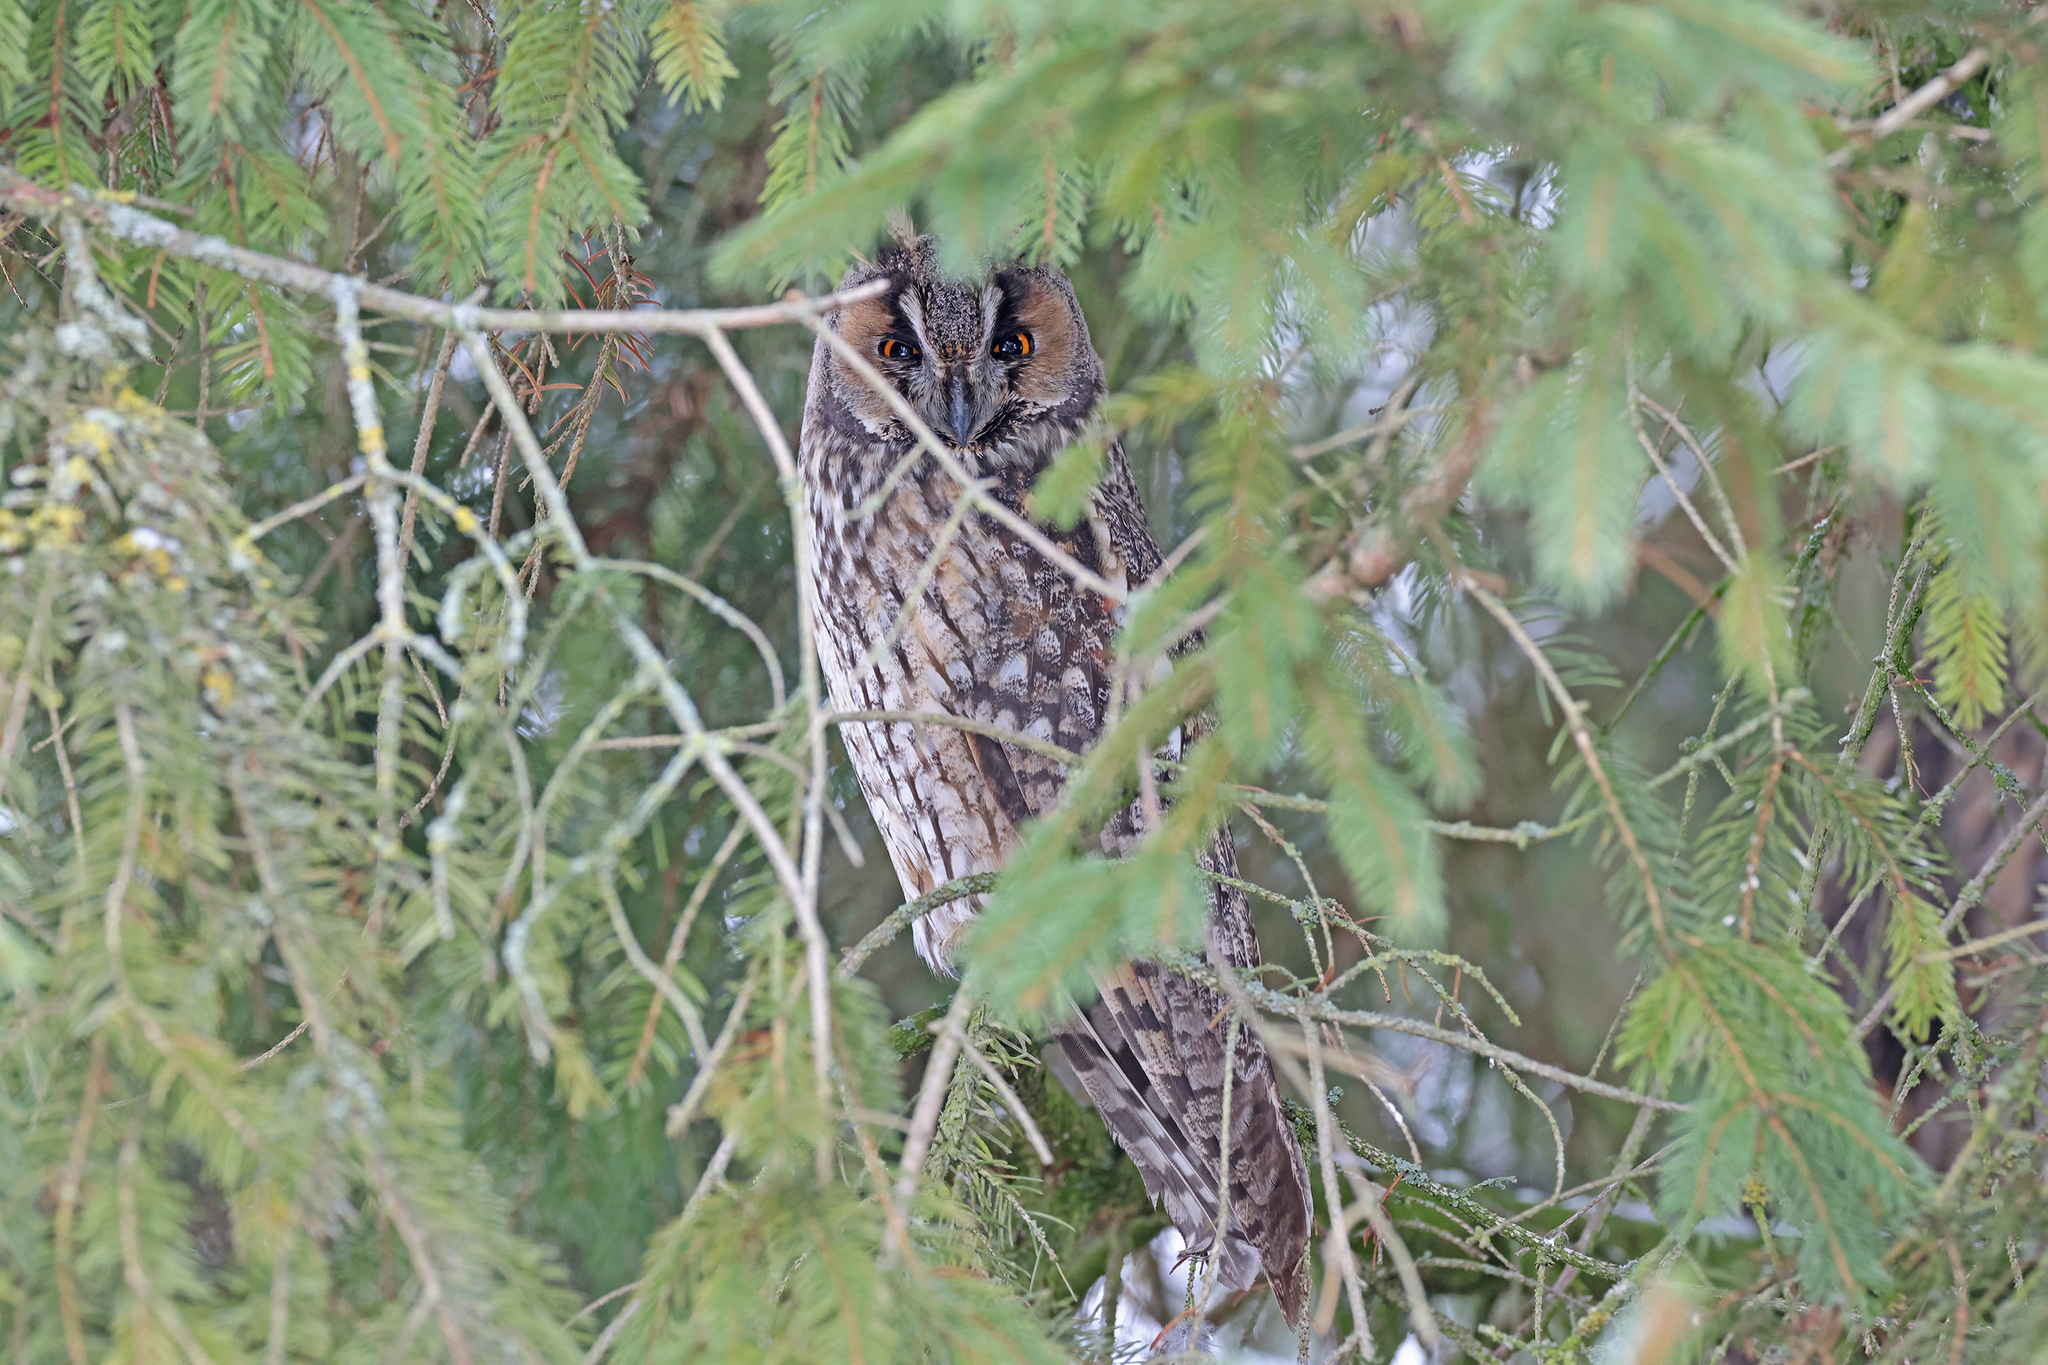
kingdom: Animalia
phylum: Chordata
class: Aves
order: Strigiformes
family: Strigidae
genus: Asio
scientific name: Asio otus
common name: Long-eared owl
